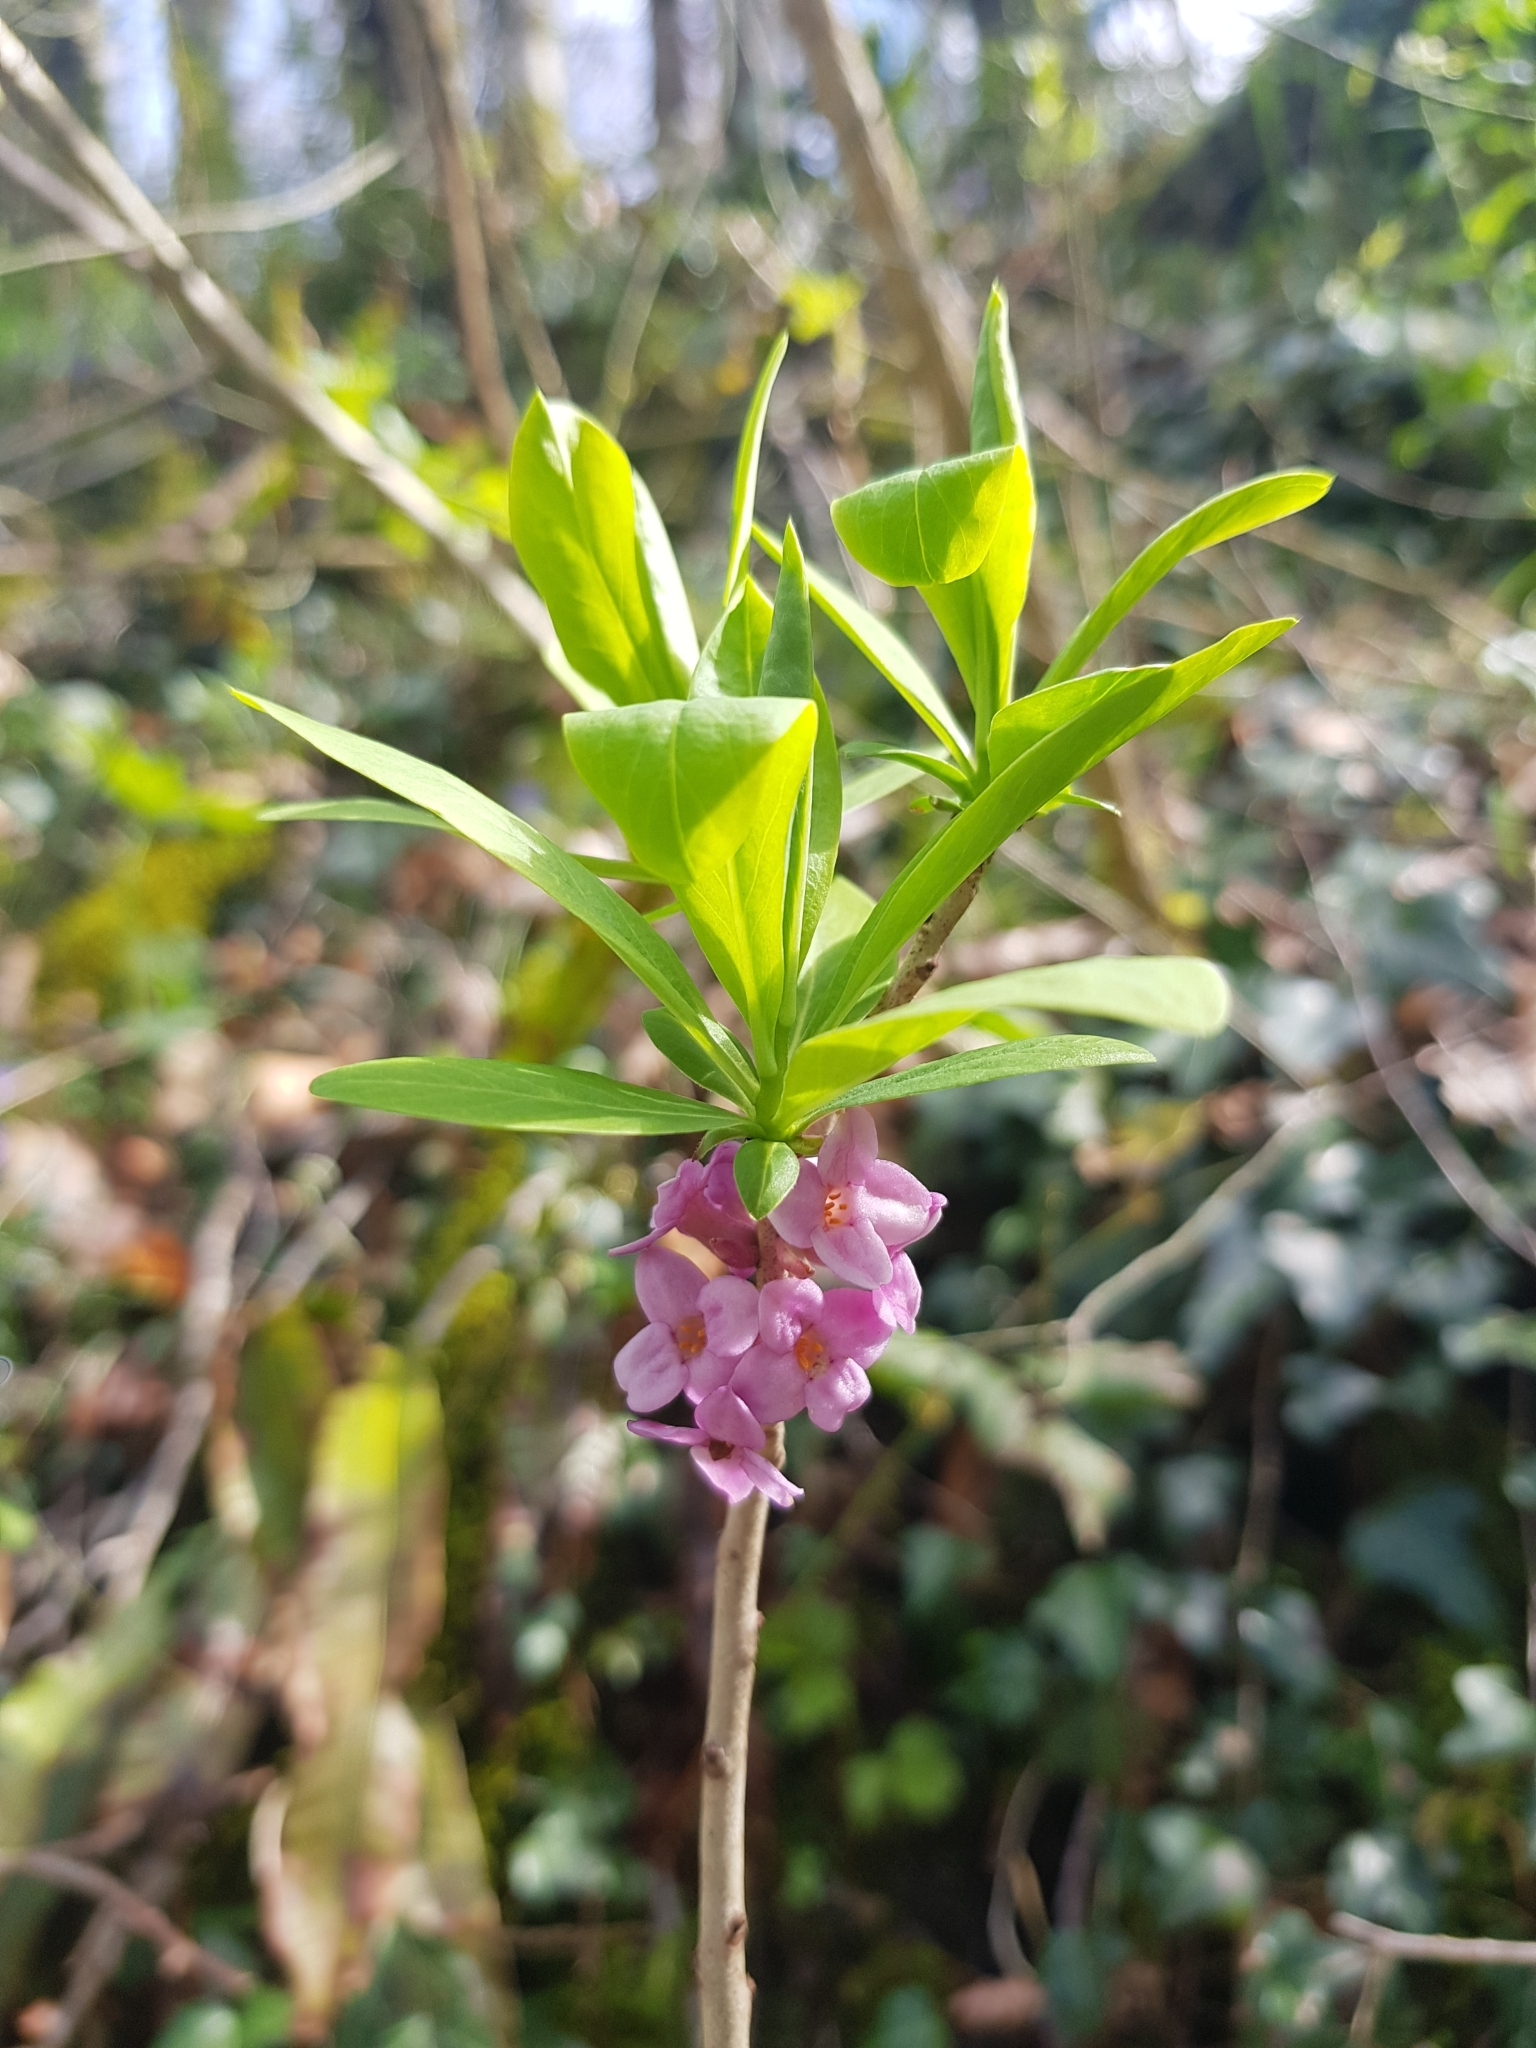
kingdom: Plantae
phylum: Tracheophyta
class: Magnoliopsida
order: Malvales
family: Thymelaeaceae
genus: Daphne
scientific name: Daphne mezereum
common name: Mezereon
